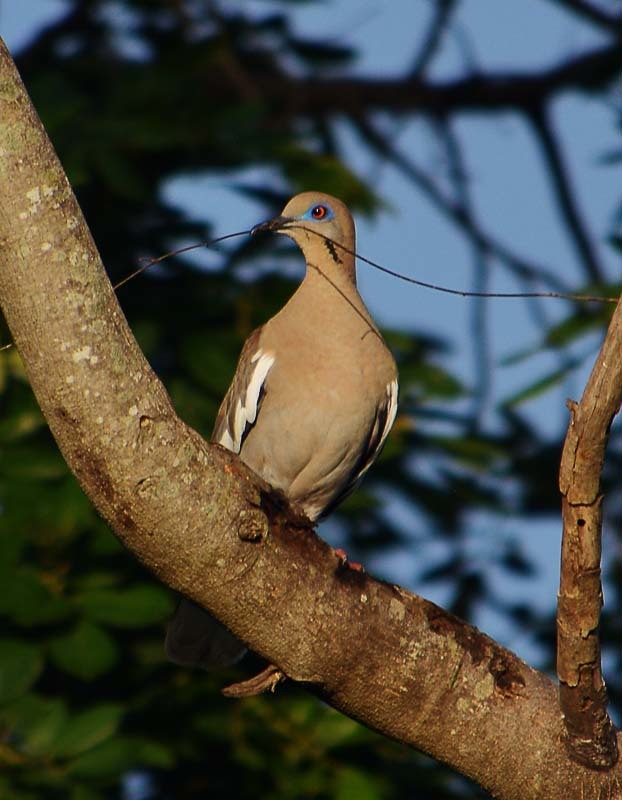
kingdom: Animalia
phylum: Chordata
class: Aves
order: Columbiformes
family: Columbidae
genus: Zenaida
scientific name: Zenaida asiatica
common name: White-winged dove
